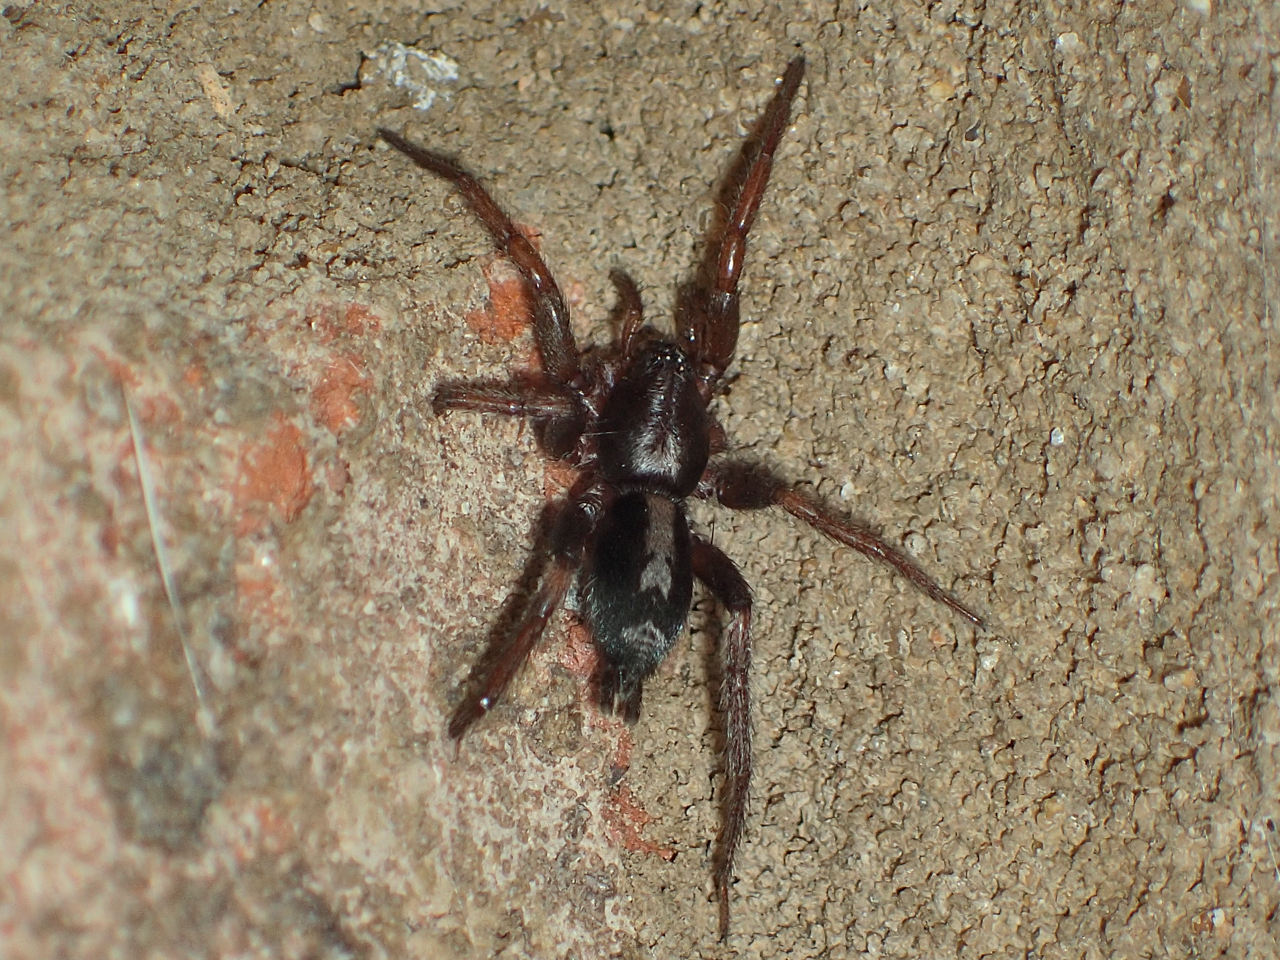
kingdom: Animalia
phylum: Arthropoda
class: Arachnida
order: Araneae
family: Gnaphosidae
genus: Herpyllus
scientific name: Herpyllus ecclesiasticus
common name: Eastern parson spider
